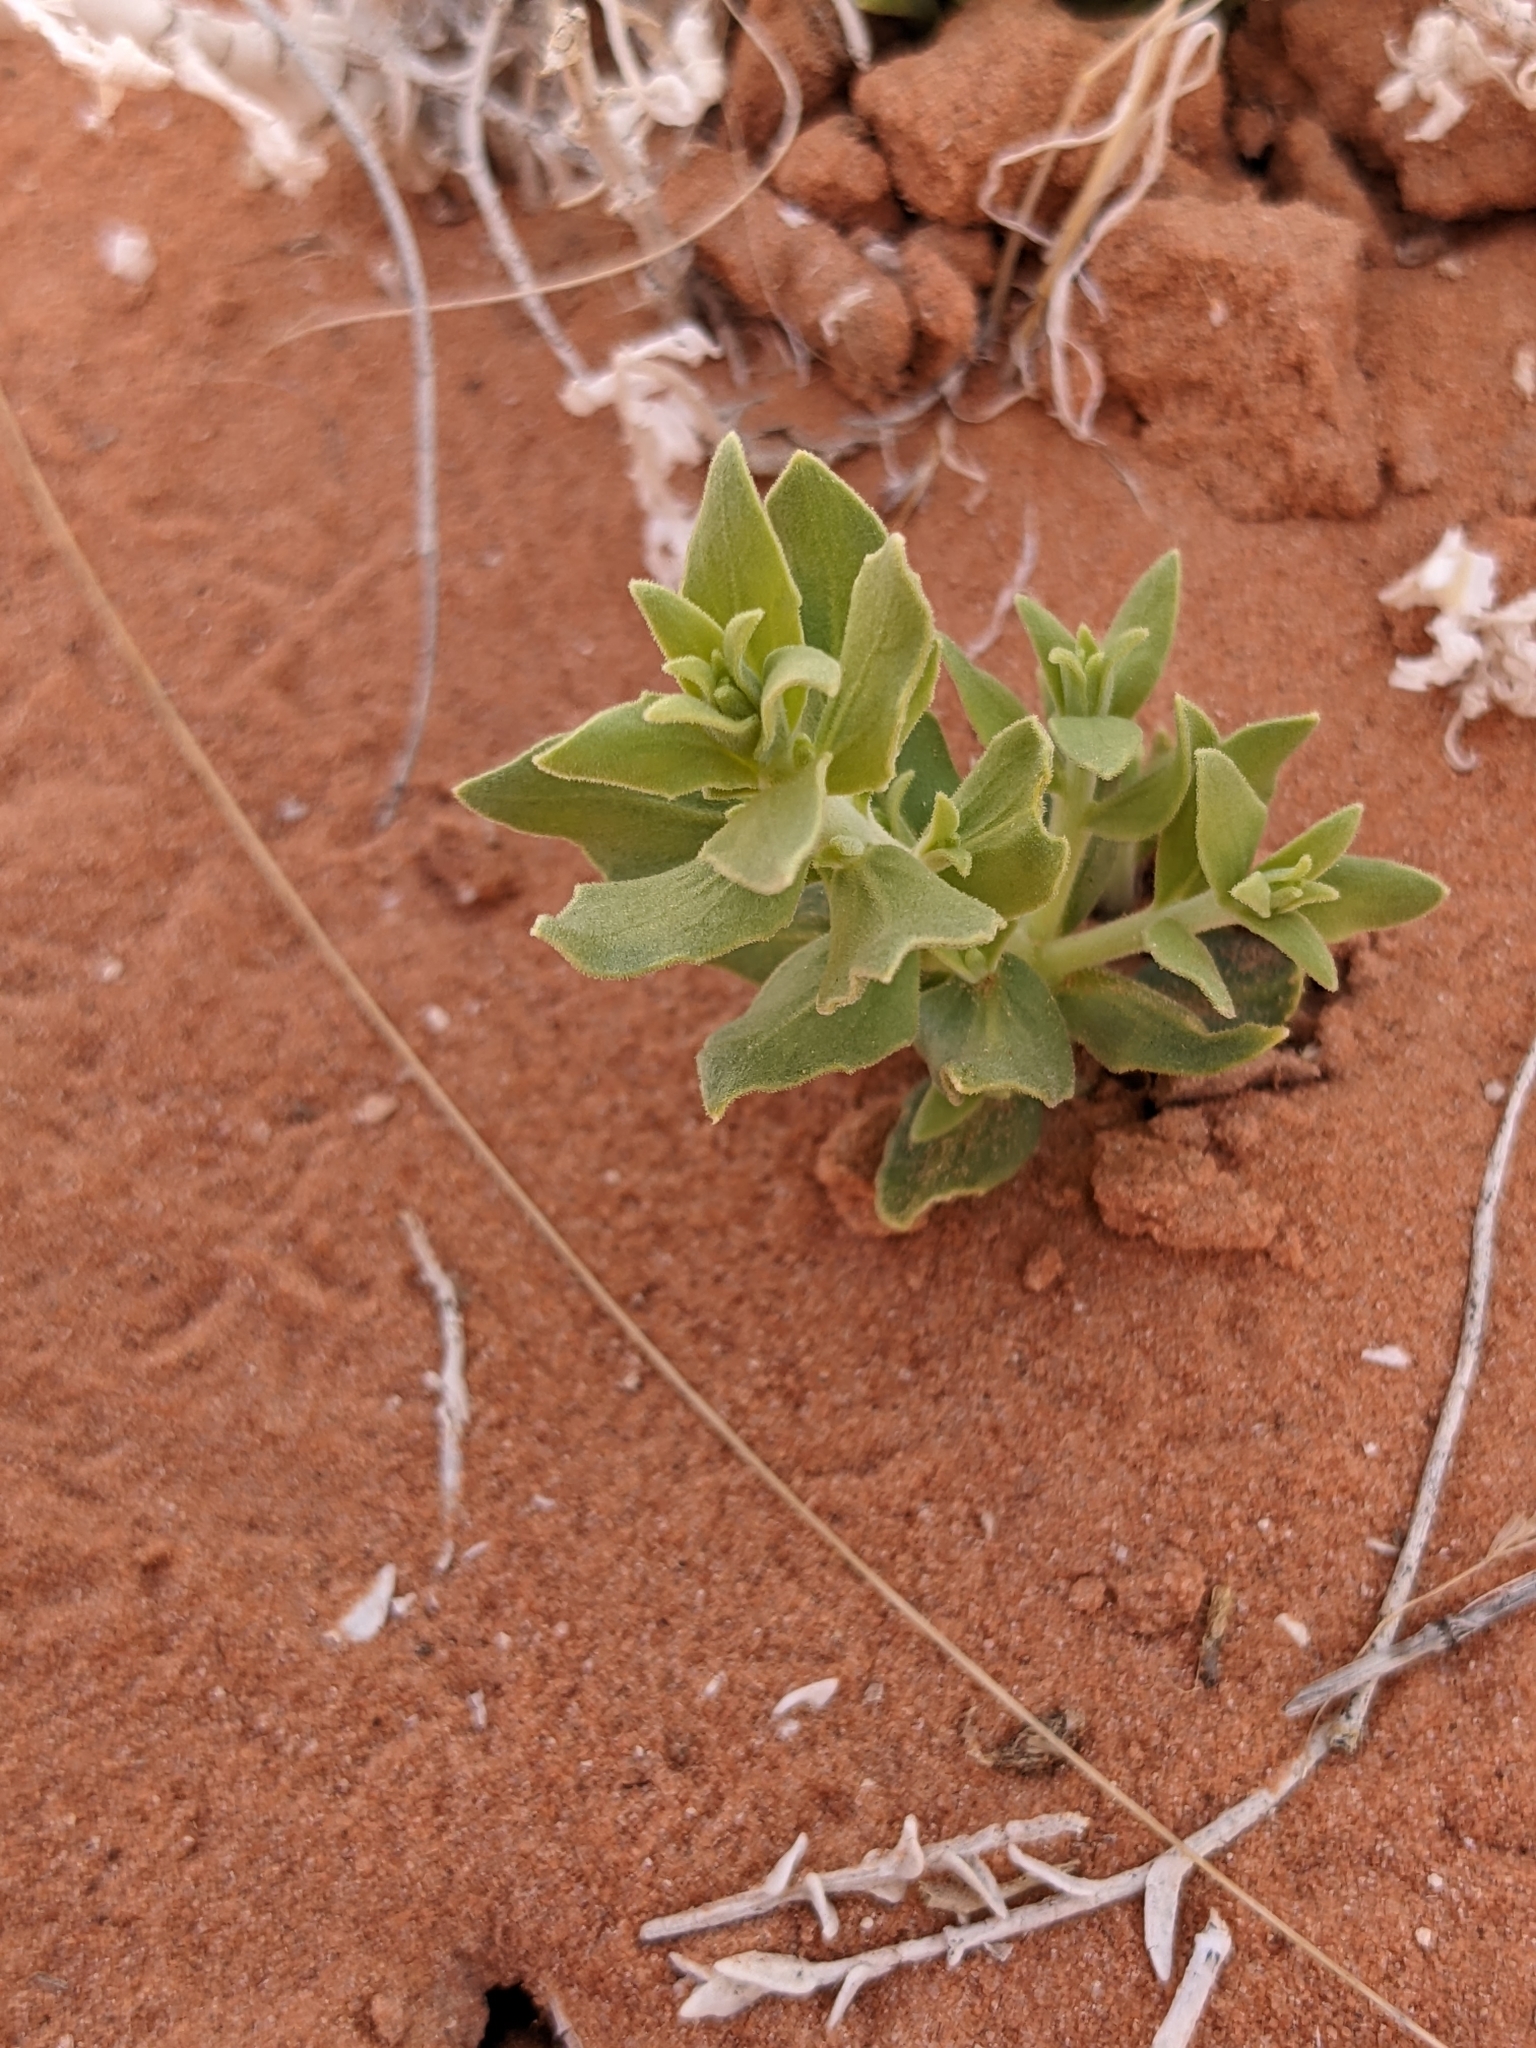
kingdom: Plantae
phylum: Tracheophyta
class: Magnoliopsida
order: Cornales
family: Loasaceae
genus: Petalonyx
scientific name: Petalonyx thurberi
